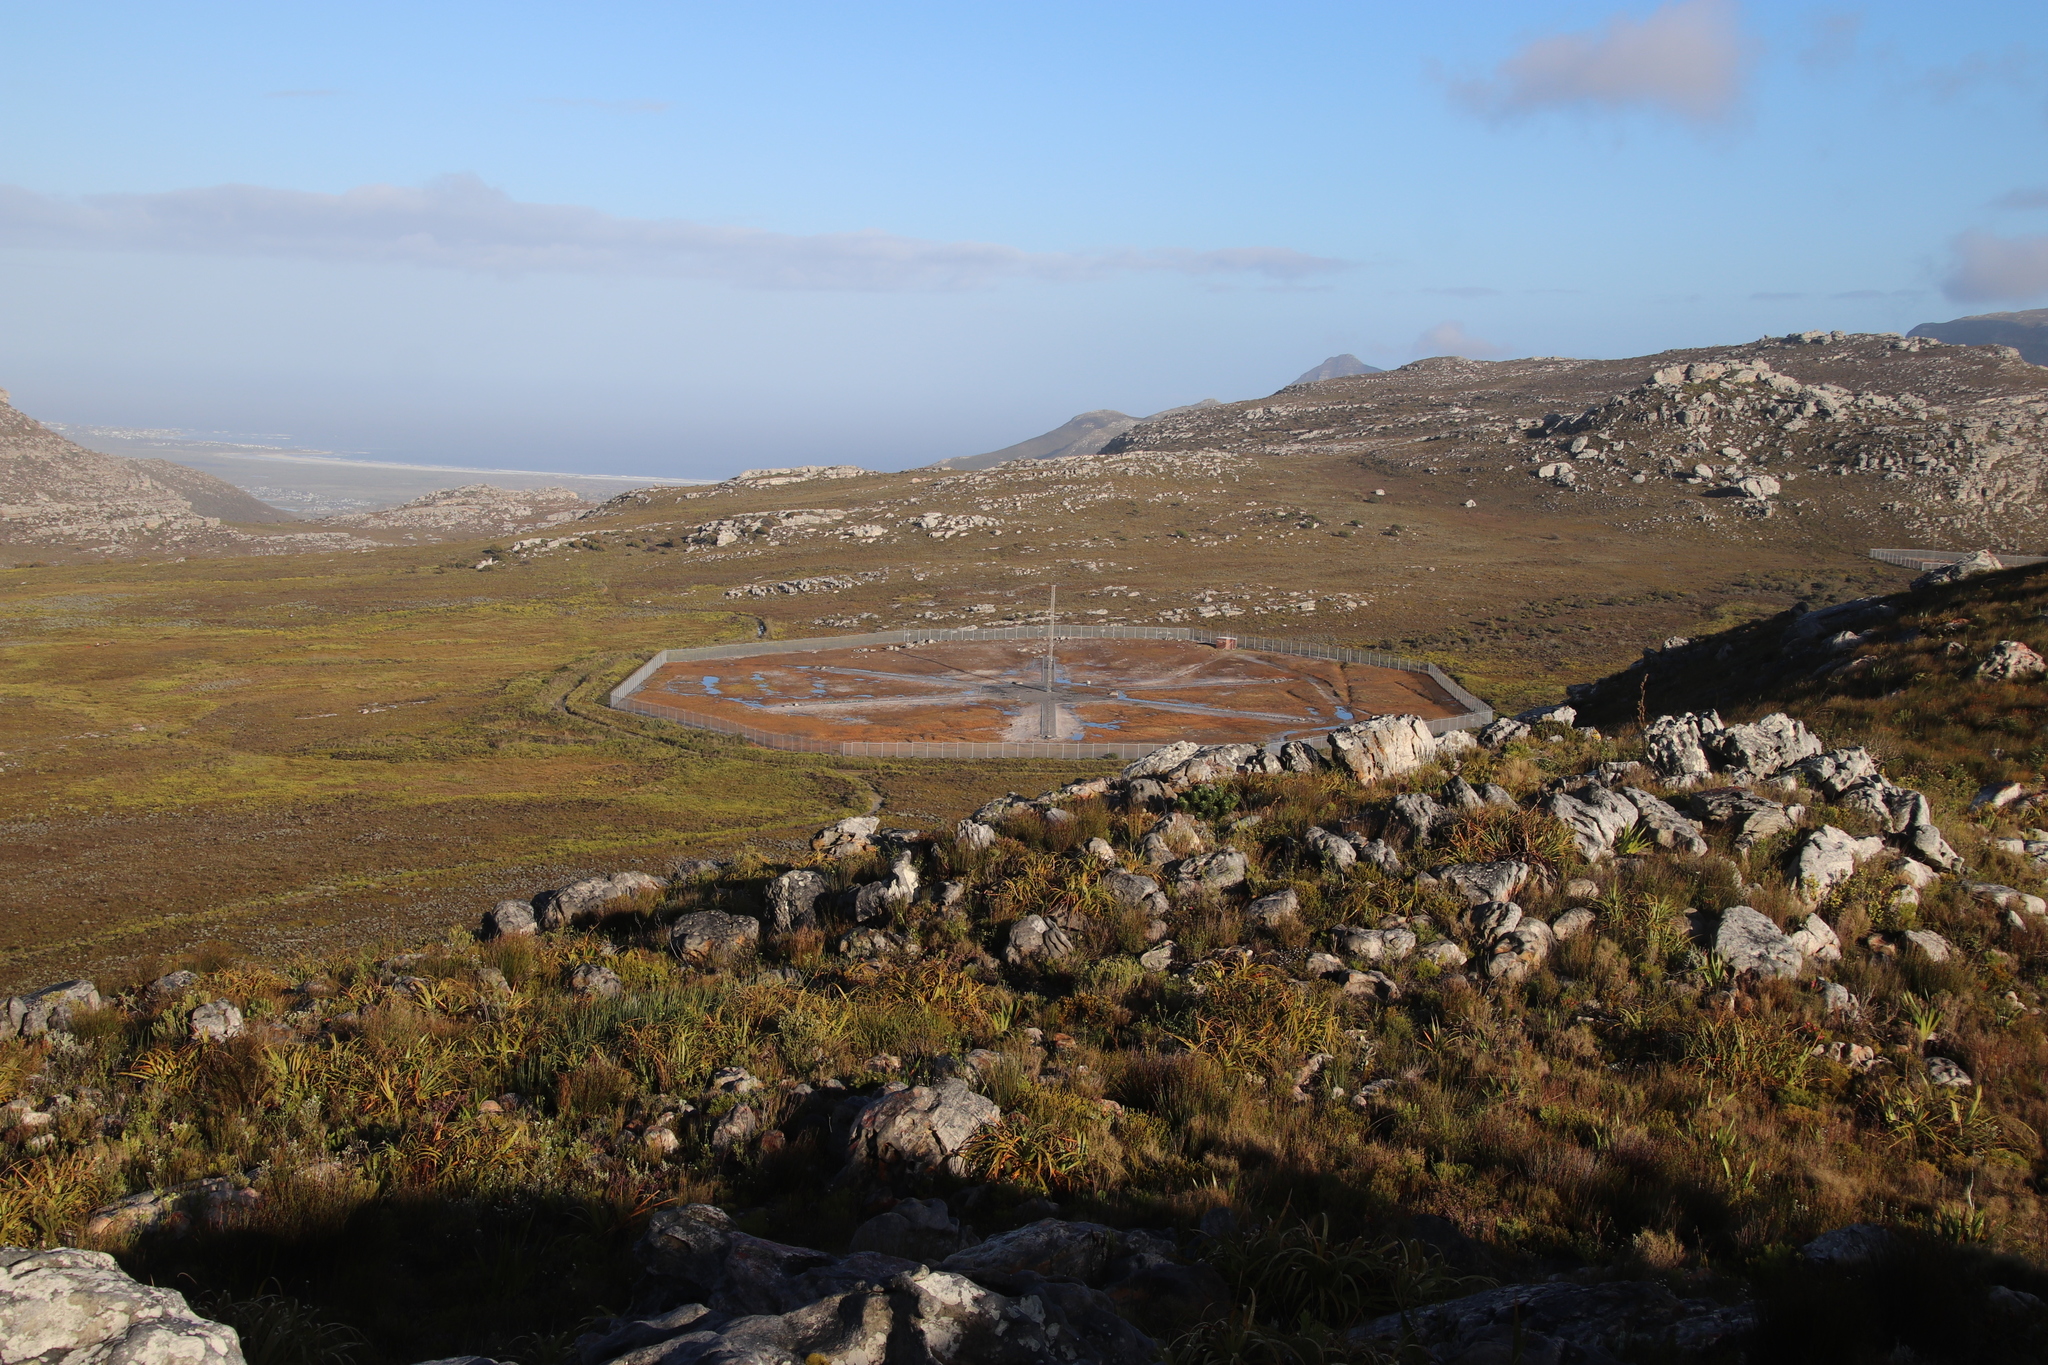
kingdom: Plantae
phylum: Tracheophyta
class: Liliopsida
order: Poales
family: Cyperaceae
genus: Tetraria
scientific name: Tetraria thermalis
